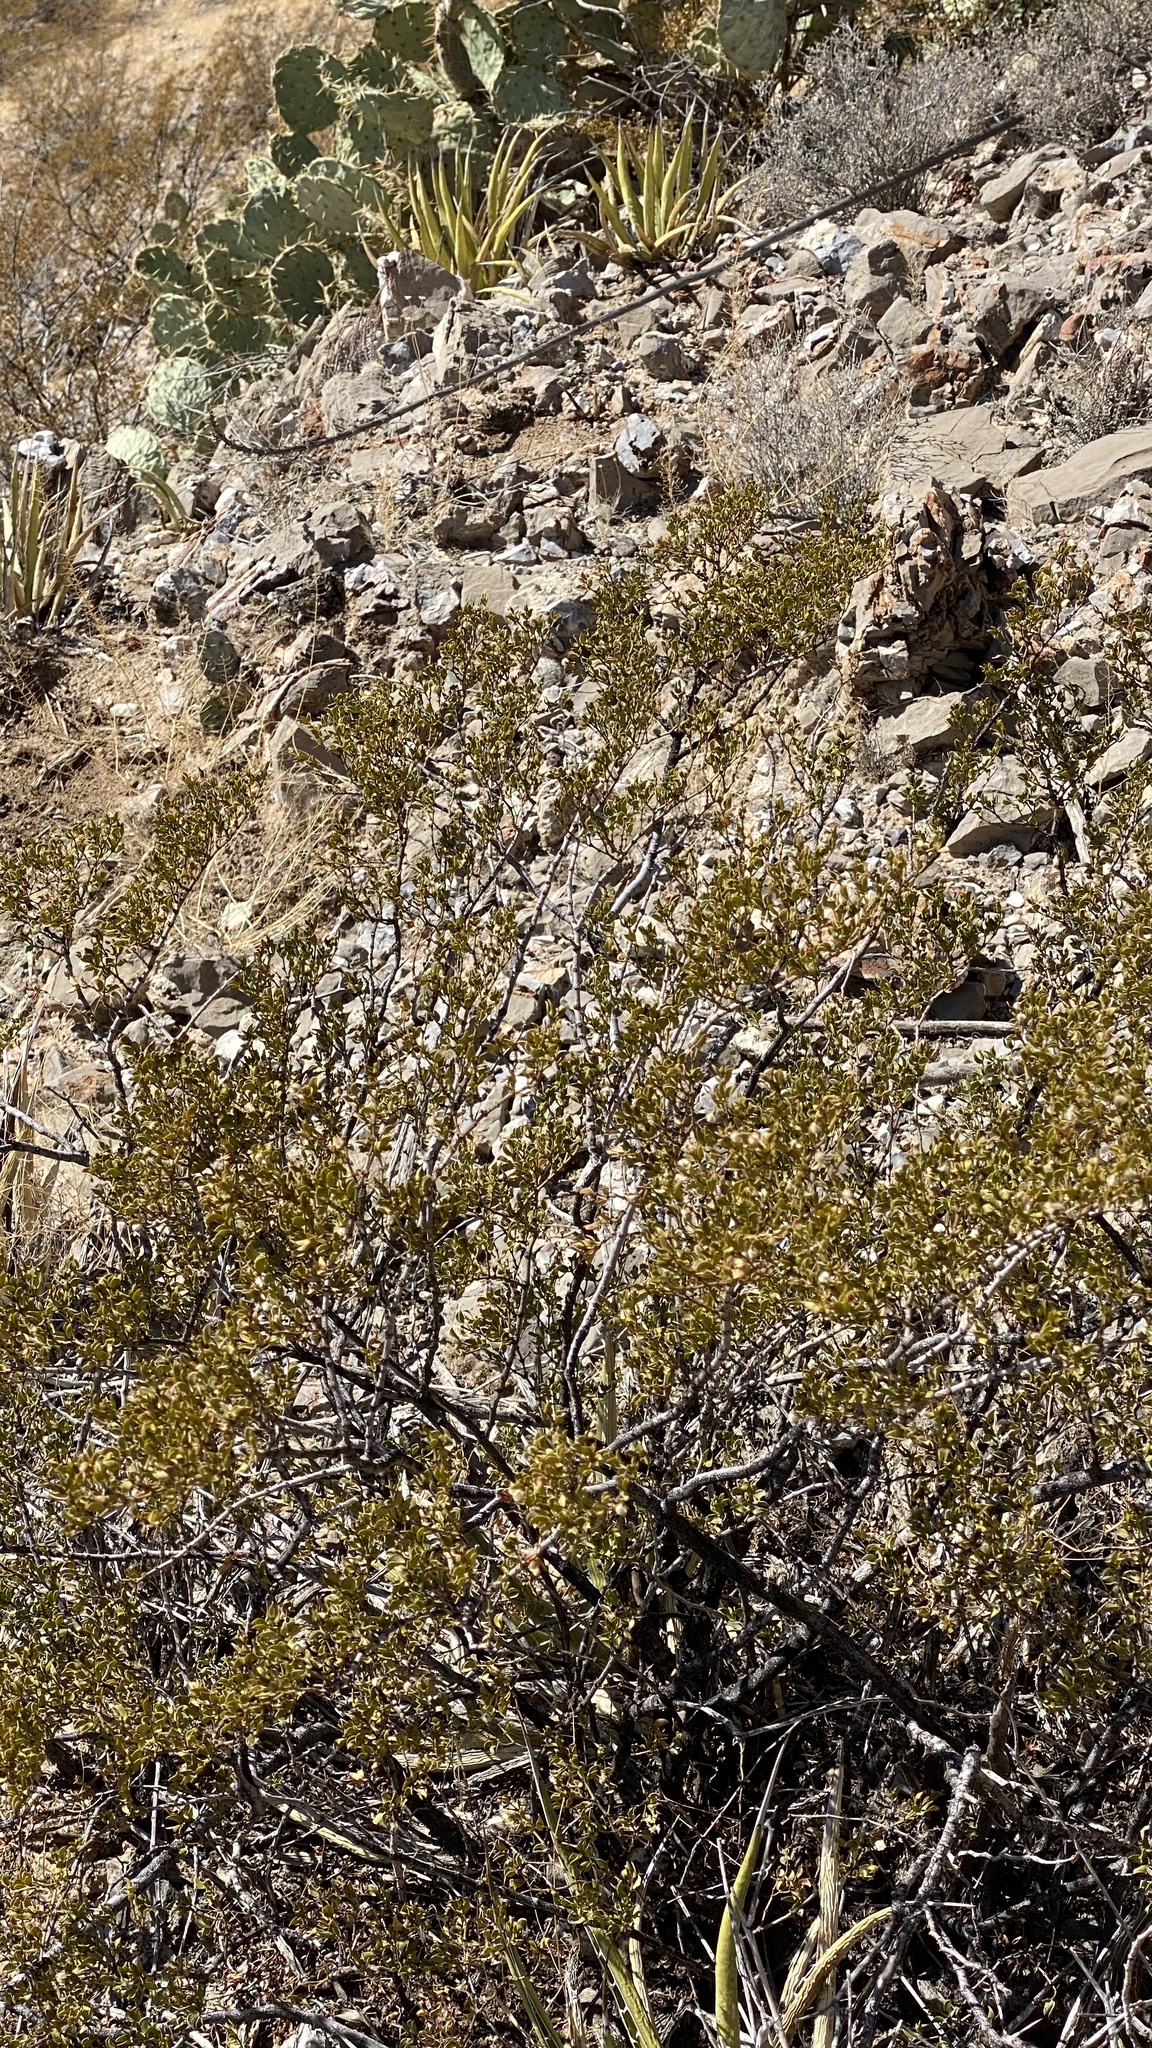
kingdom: Plantae
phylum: Tracheophyta
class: Magnoliopsida
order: Zygophyllales
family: Zygophyllaceae
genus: Larrea
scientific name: Larrea tridentata
